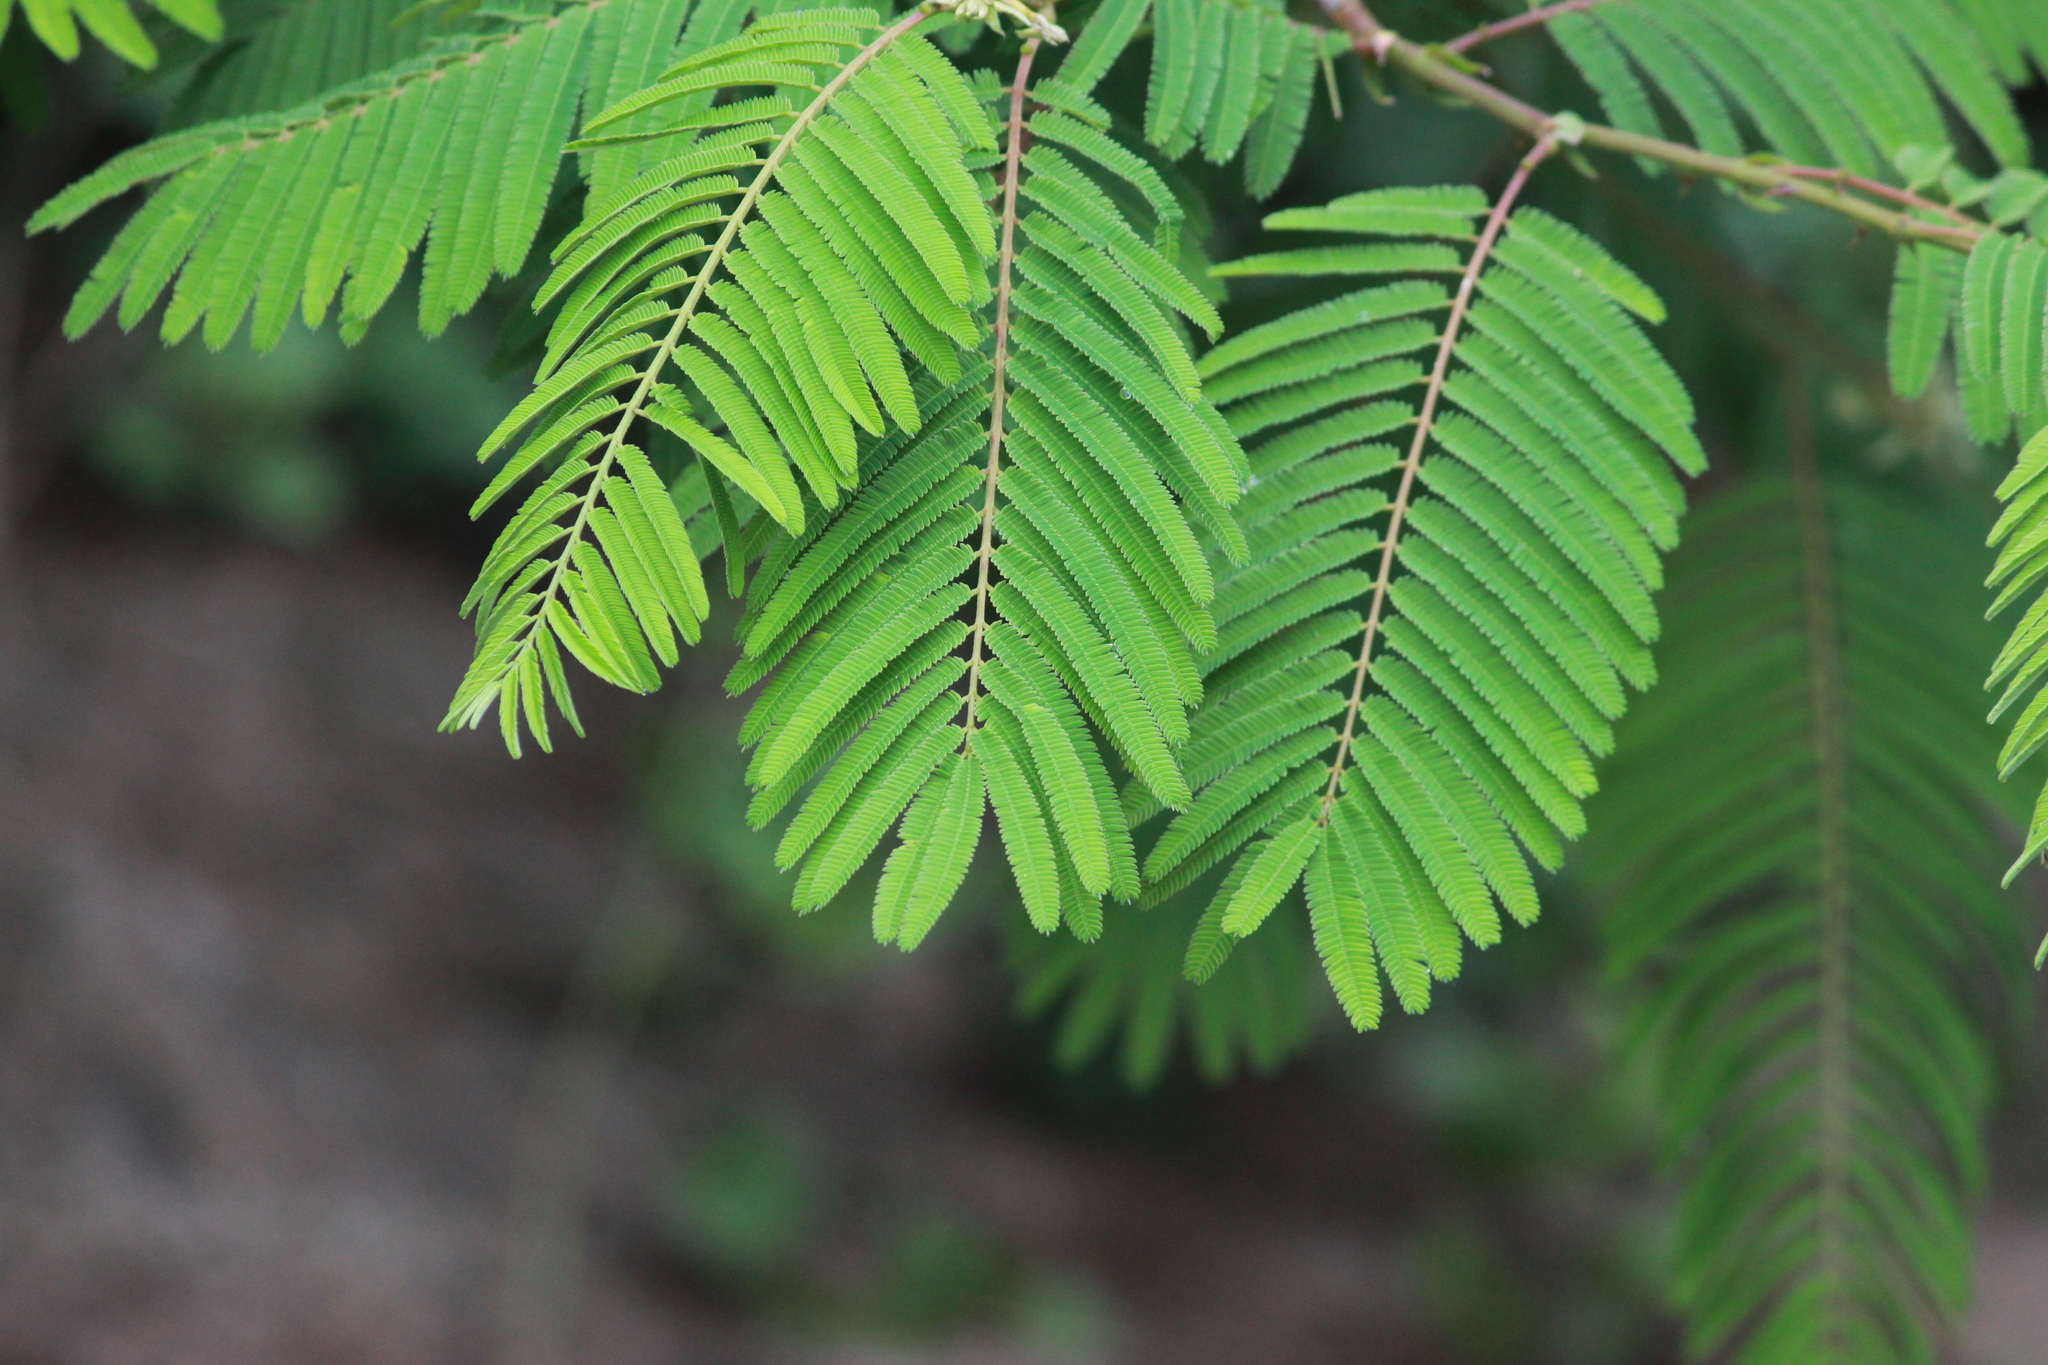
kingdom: Plantae
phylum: Tracheophyta
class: Magnoliopsida
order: Fabales
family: Fabaceae
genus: Senegalia
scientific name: Senegalia ataxacantha
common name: Flame acacia
